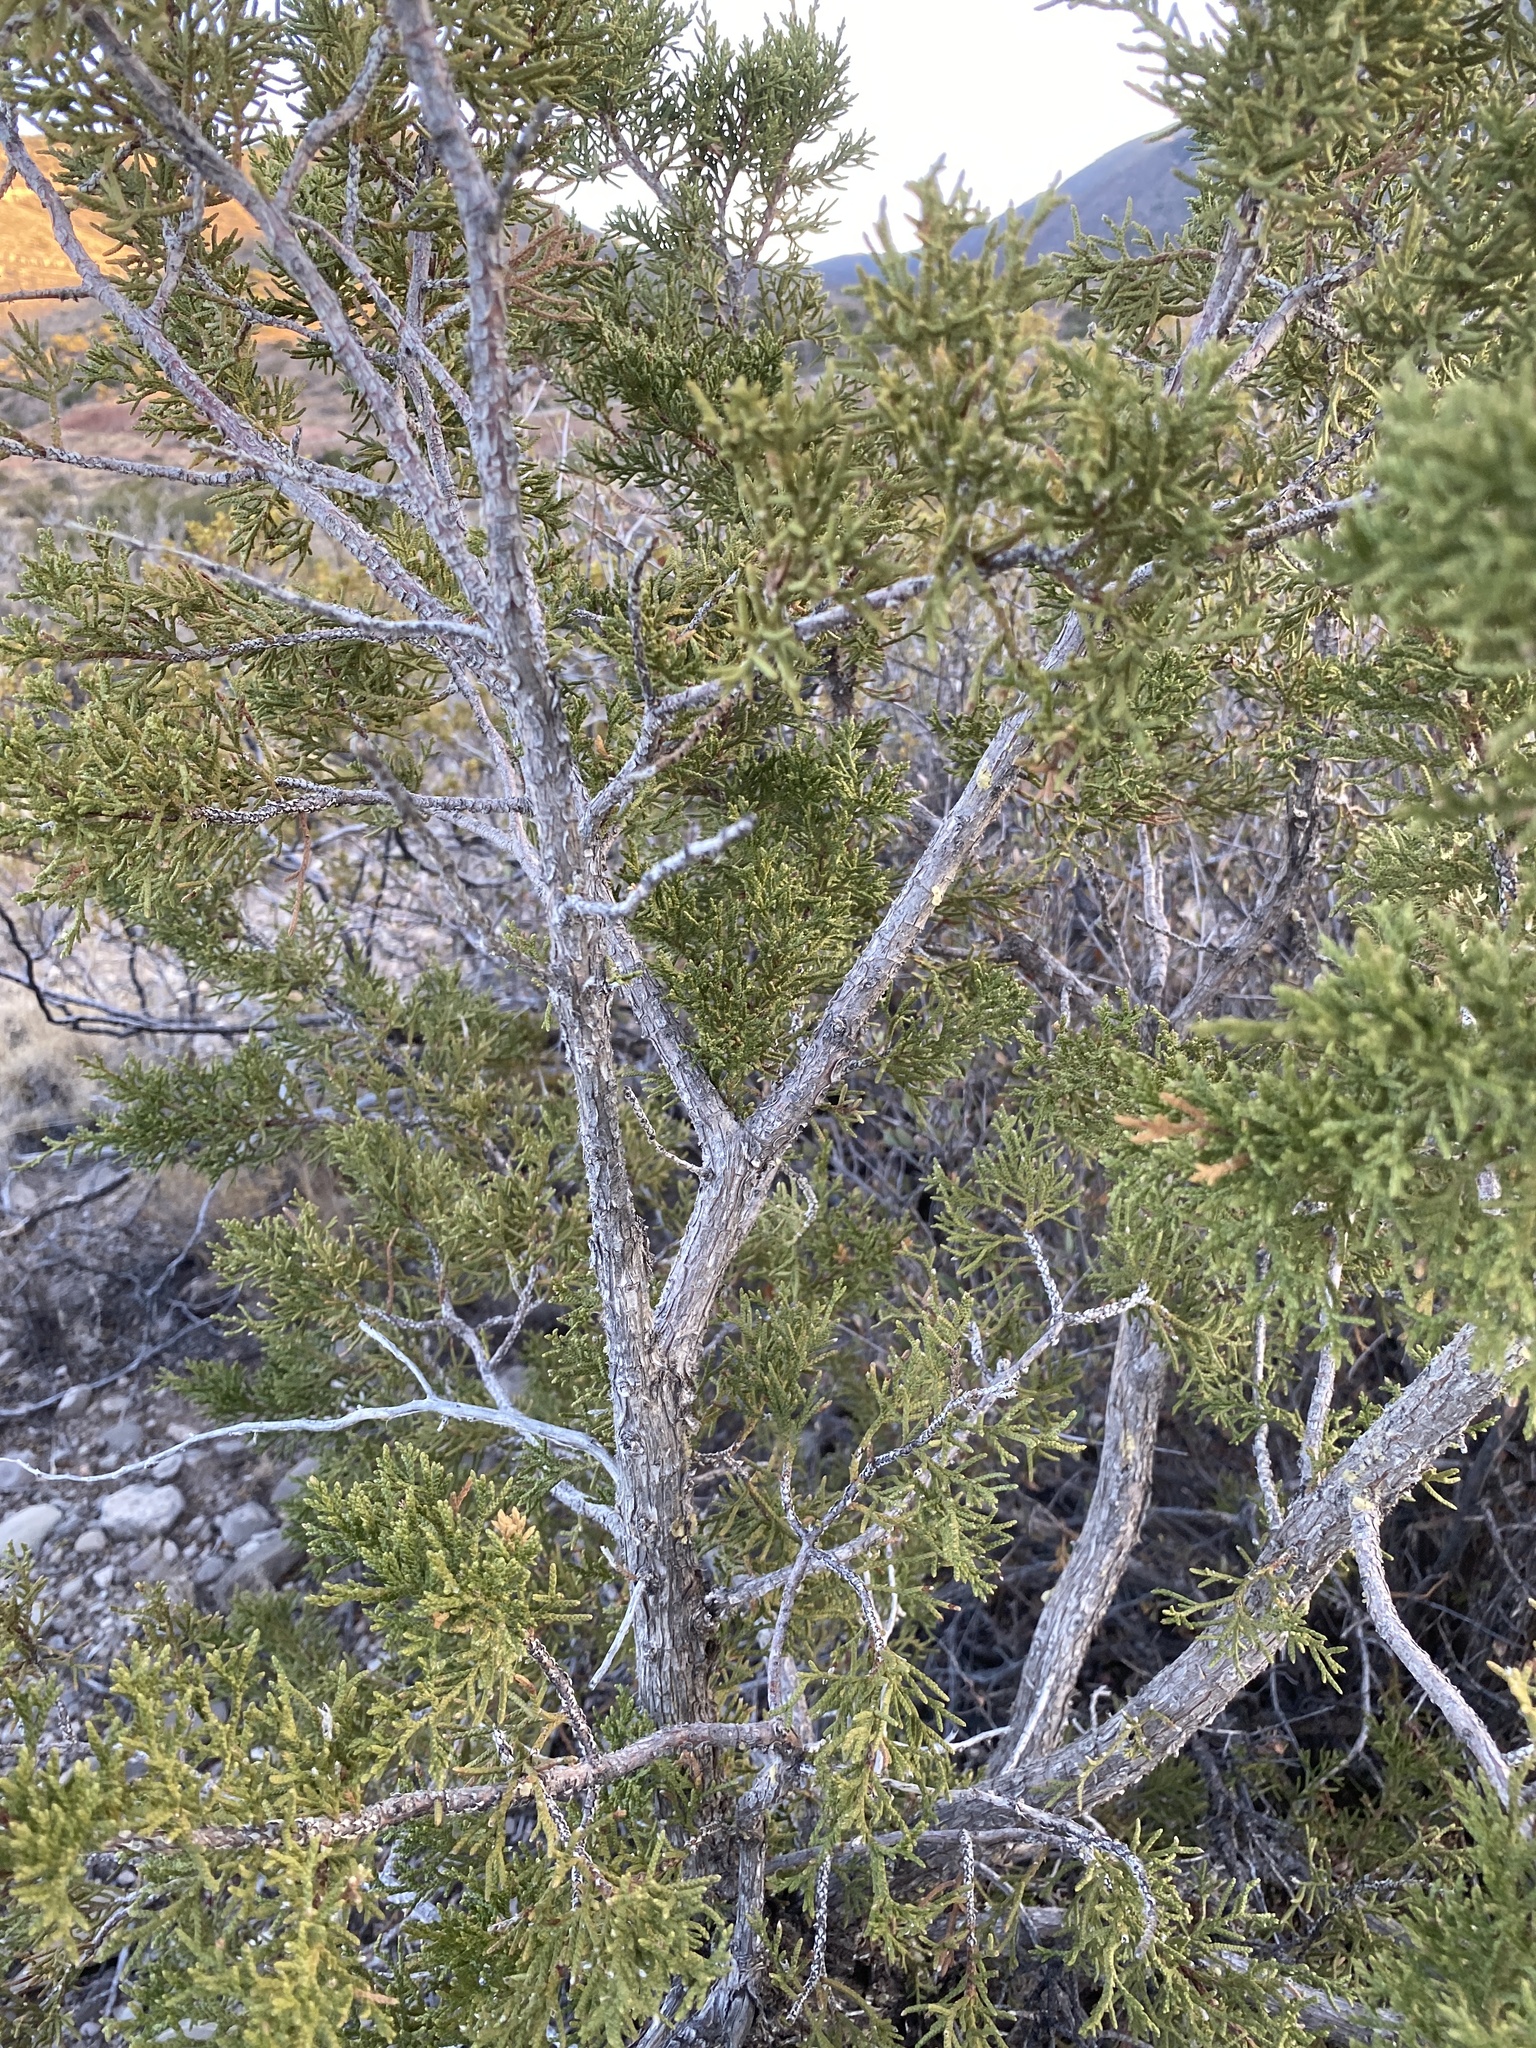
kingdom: Plantae
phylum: Tracheophyta
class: Pinopsida
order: Pinales
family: Cupressaceae
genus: Juniperus
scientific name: Juniperus monosperma
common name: One-seed juniper
